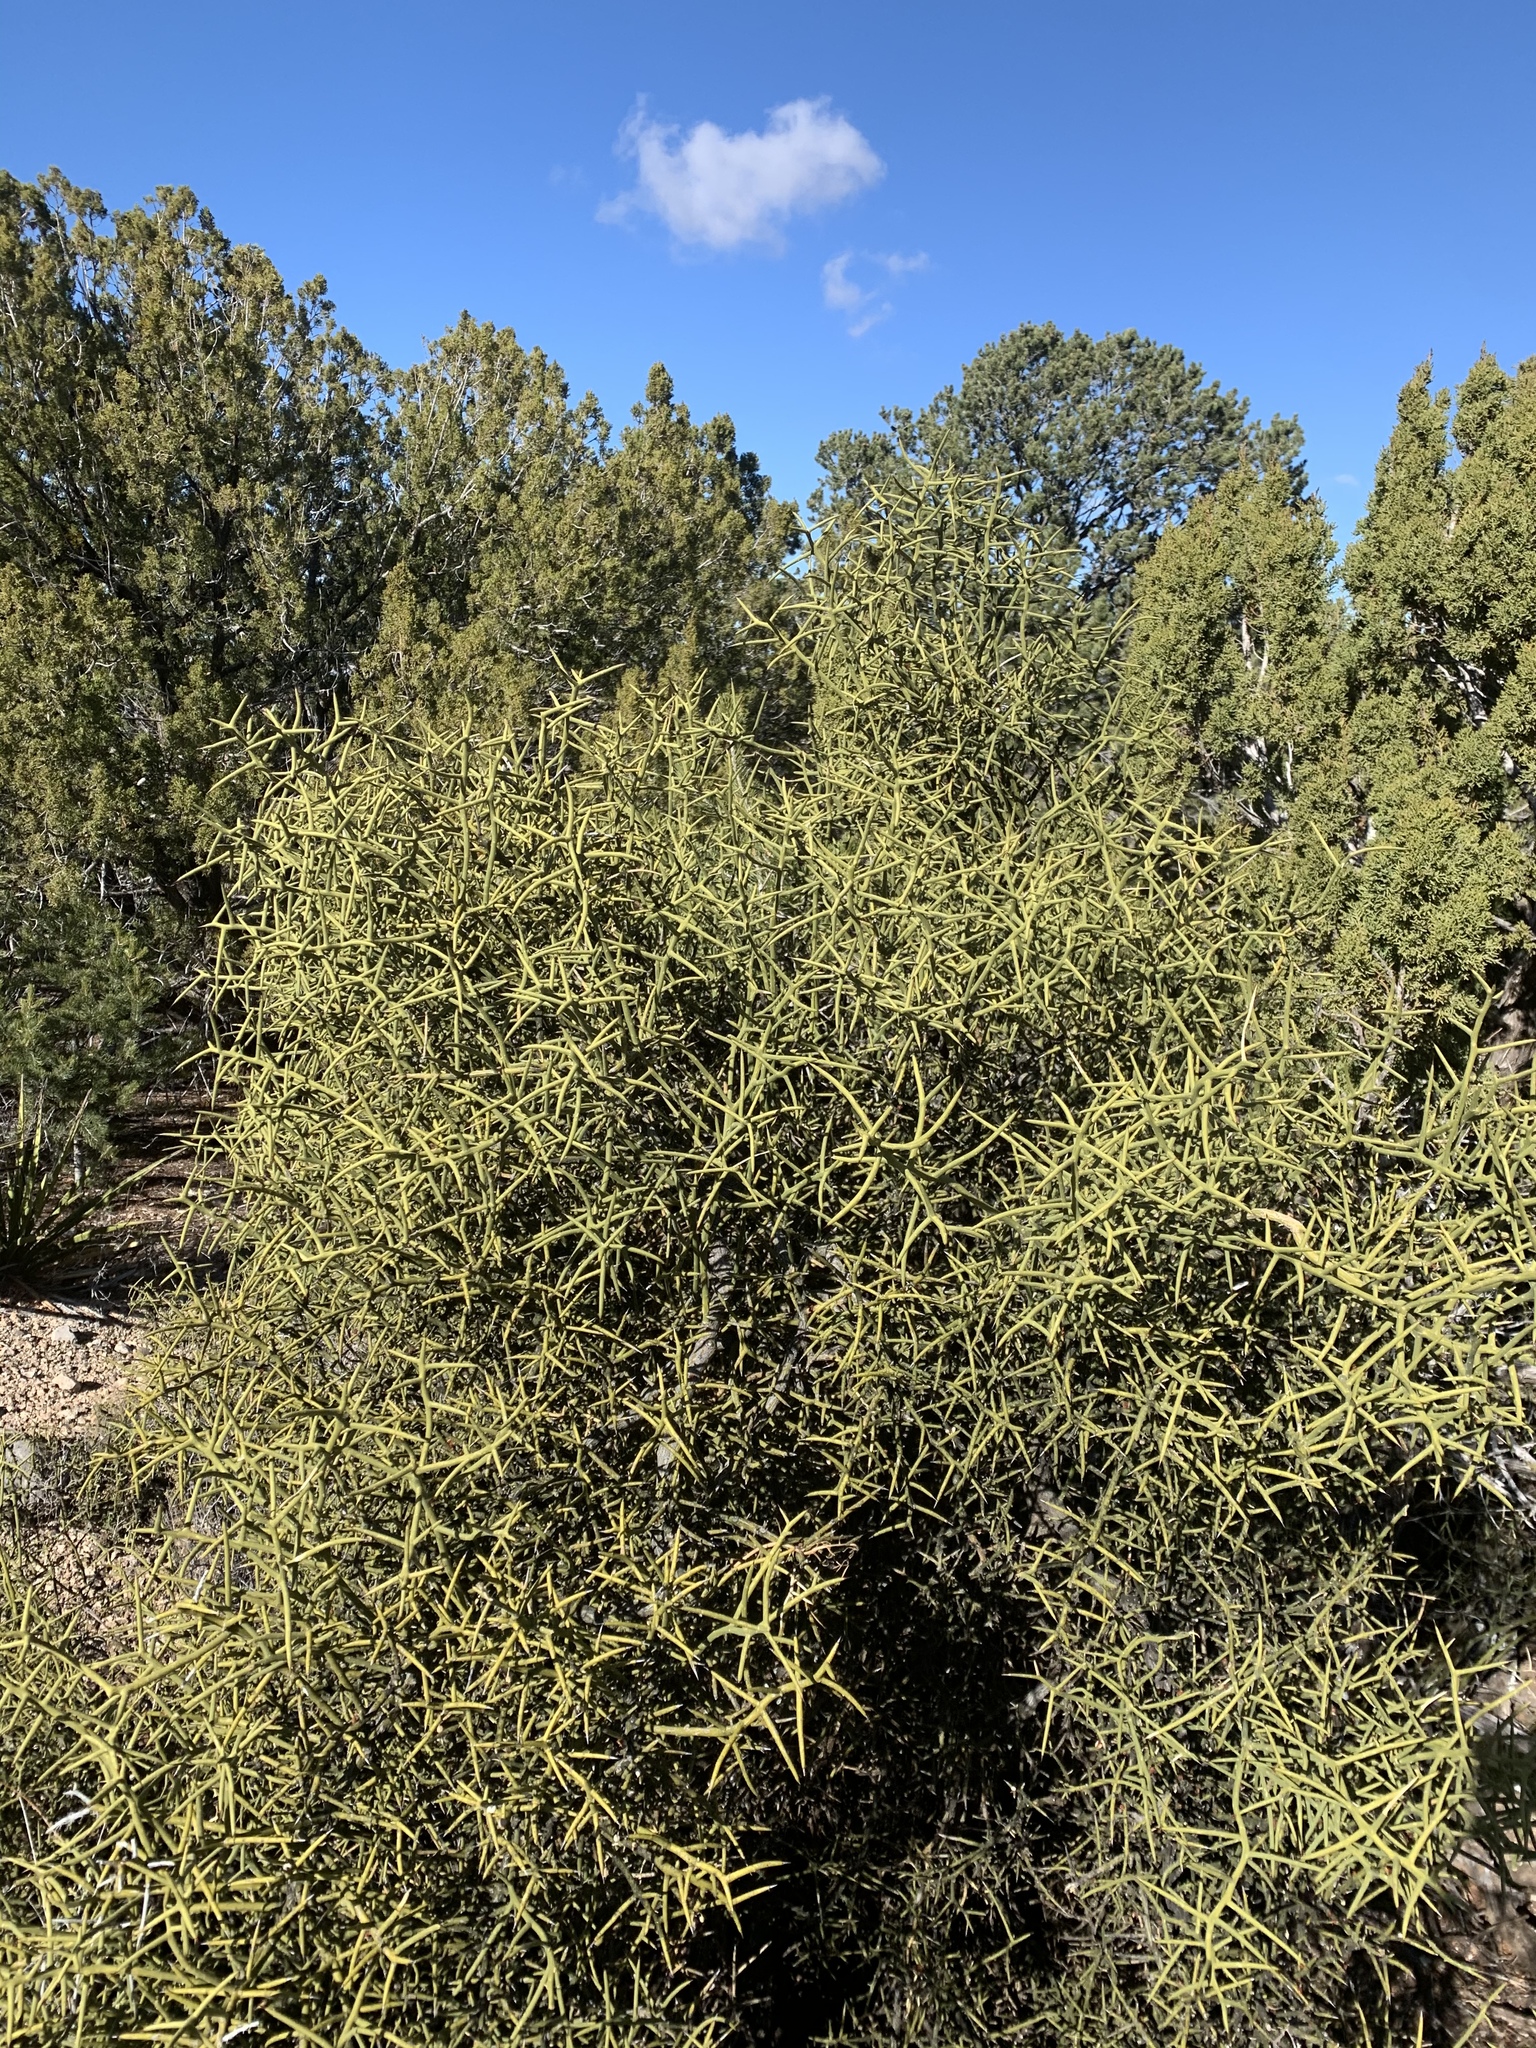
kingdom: Plantae
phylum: Tracheophyta
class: Magnoliopsida
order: Brassicales
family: Koeberliniaceae
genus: Koeberlinia
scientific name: Koeberlinia spinosa
